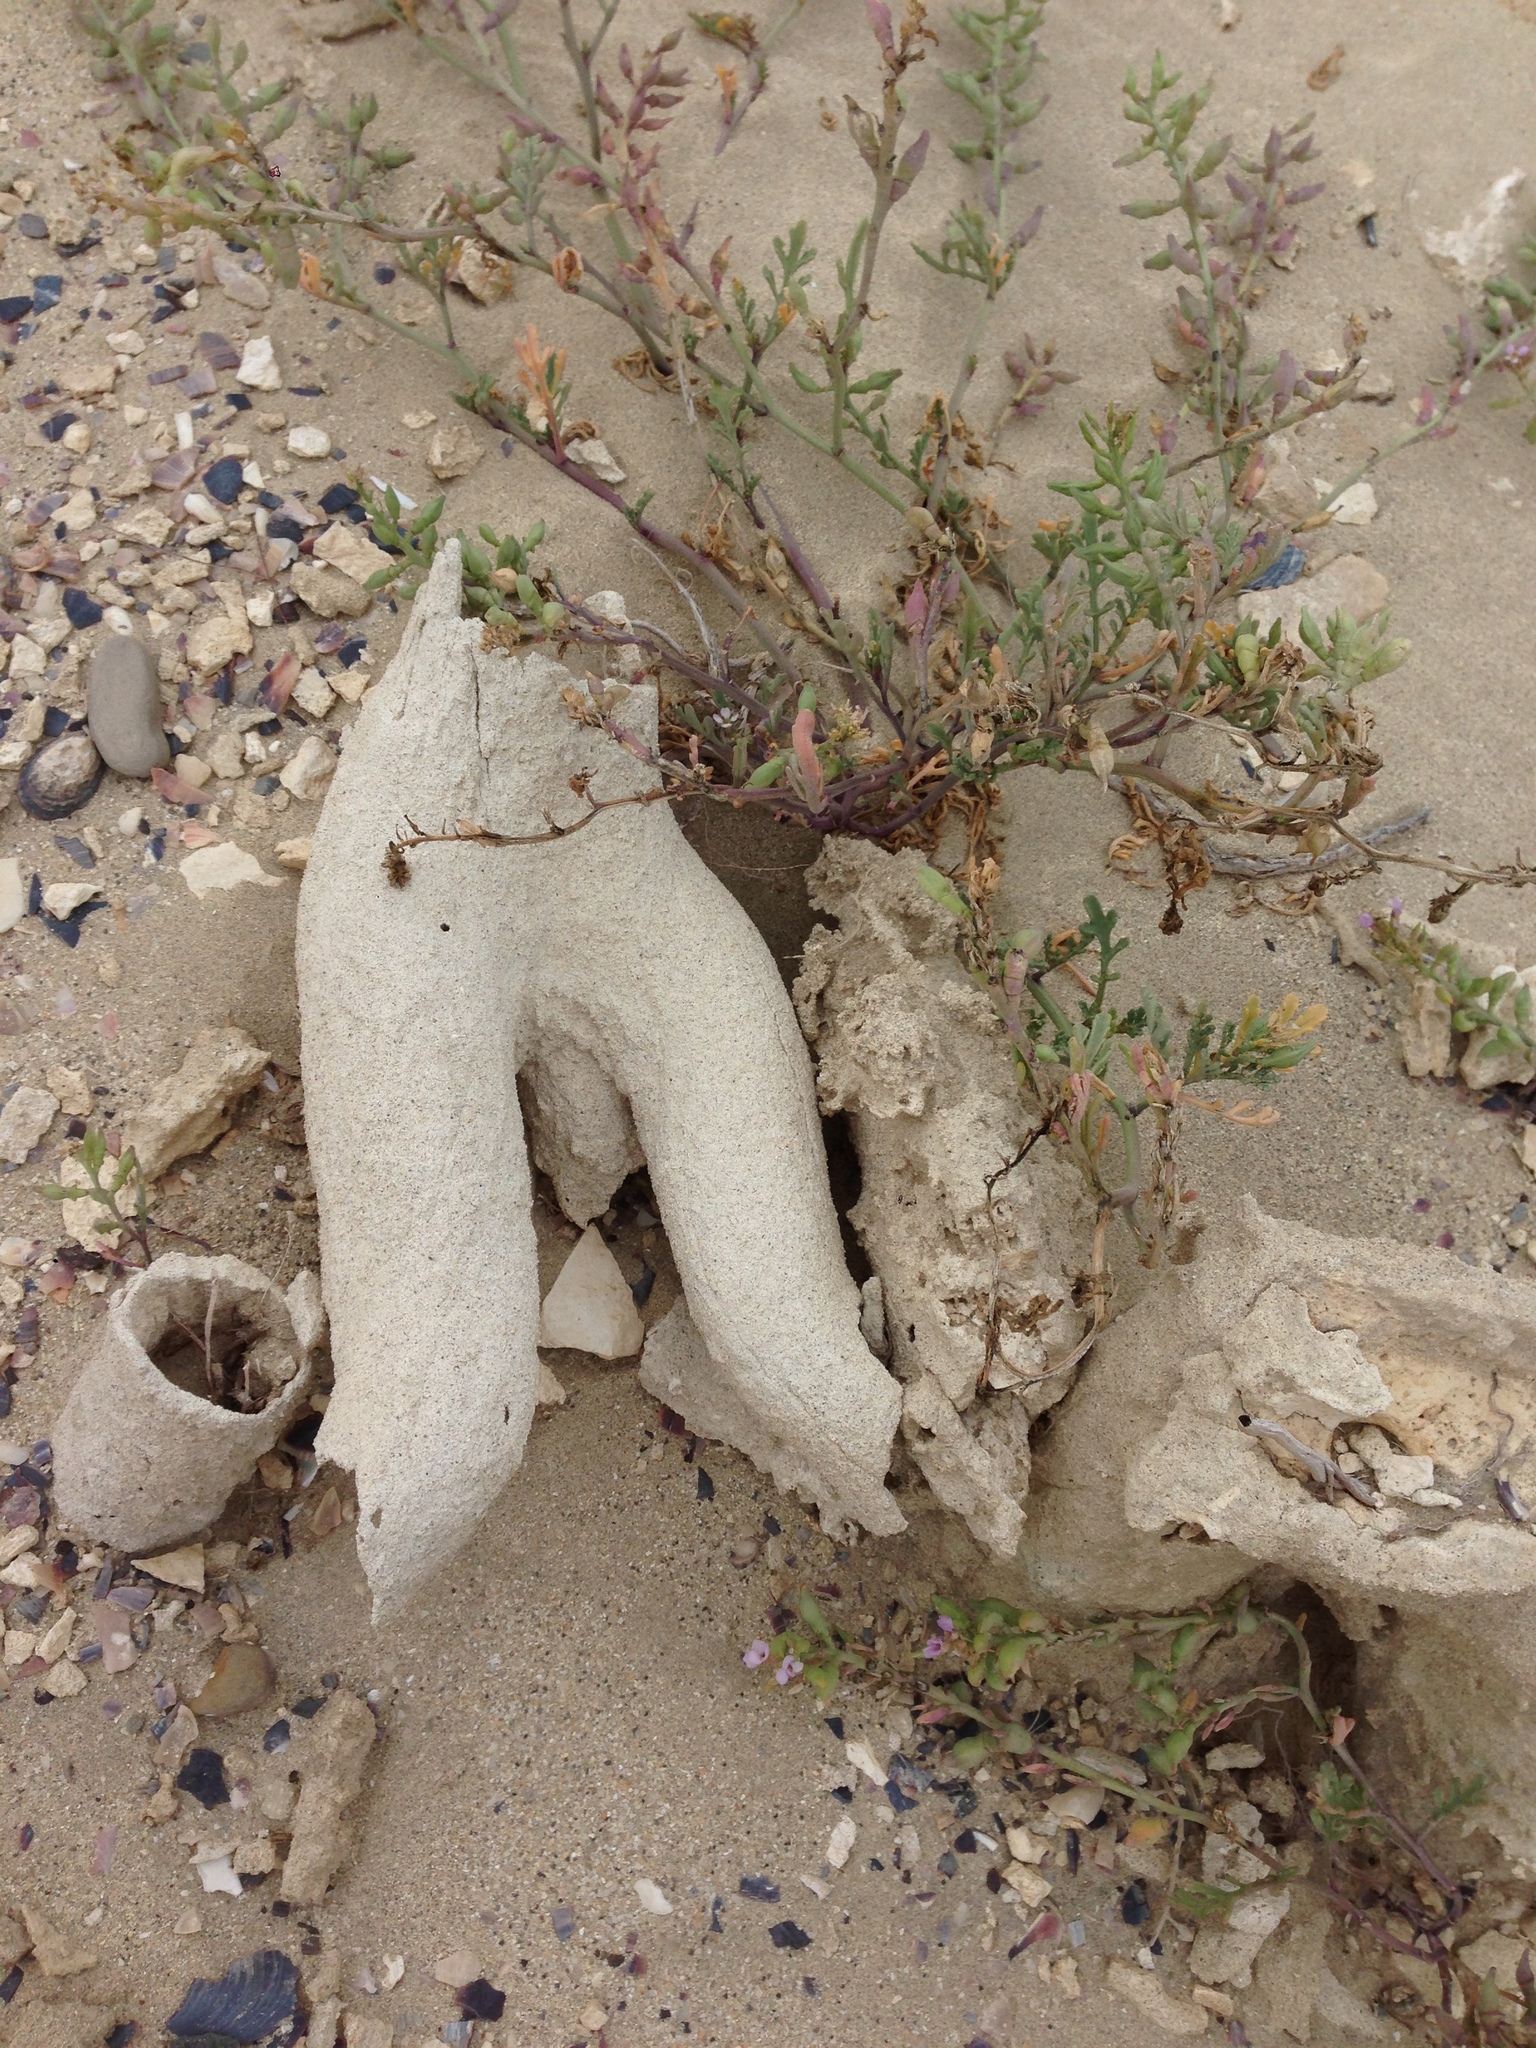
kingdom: Plantae
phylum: Tracheophyta
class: Magnoliopsida
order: Brassicales
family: Brassicaceae
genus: Cakile
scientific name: Cakile maritima
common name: Sea rocket
